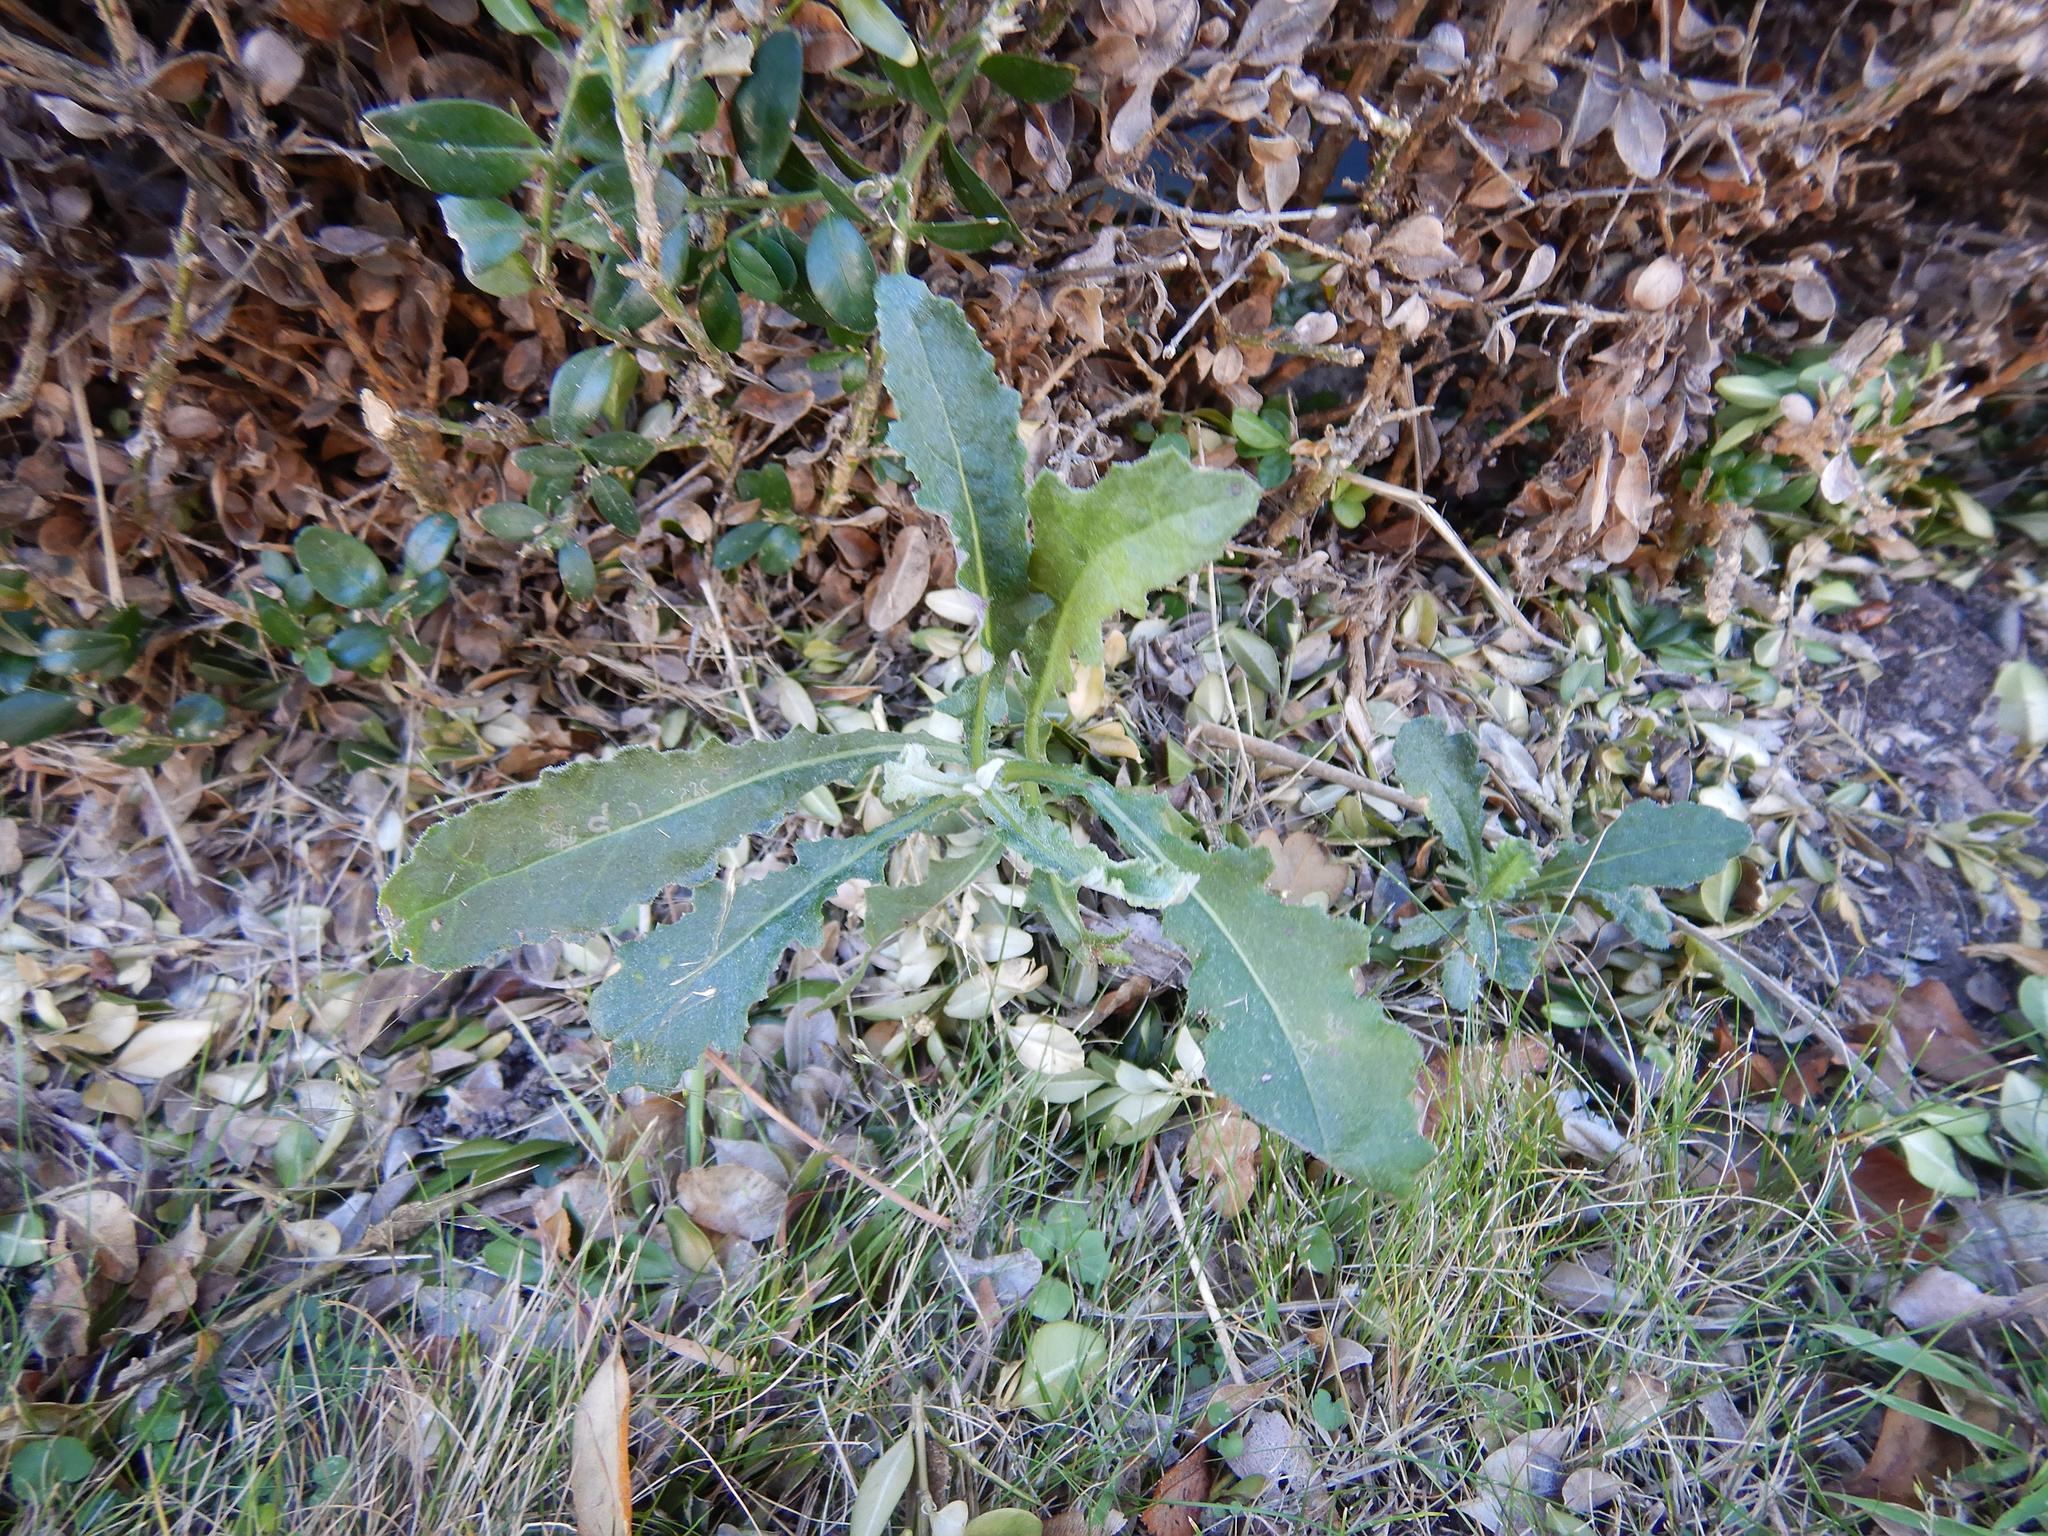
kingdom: Plantae
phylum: Tracheophyta
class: Magnoliopsida
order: Asterales
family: Asteraceae
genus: Senecio
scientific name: Senecio glomeratus
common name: Cutleaf burnweed
